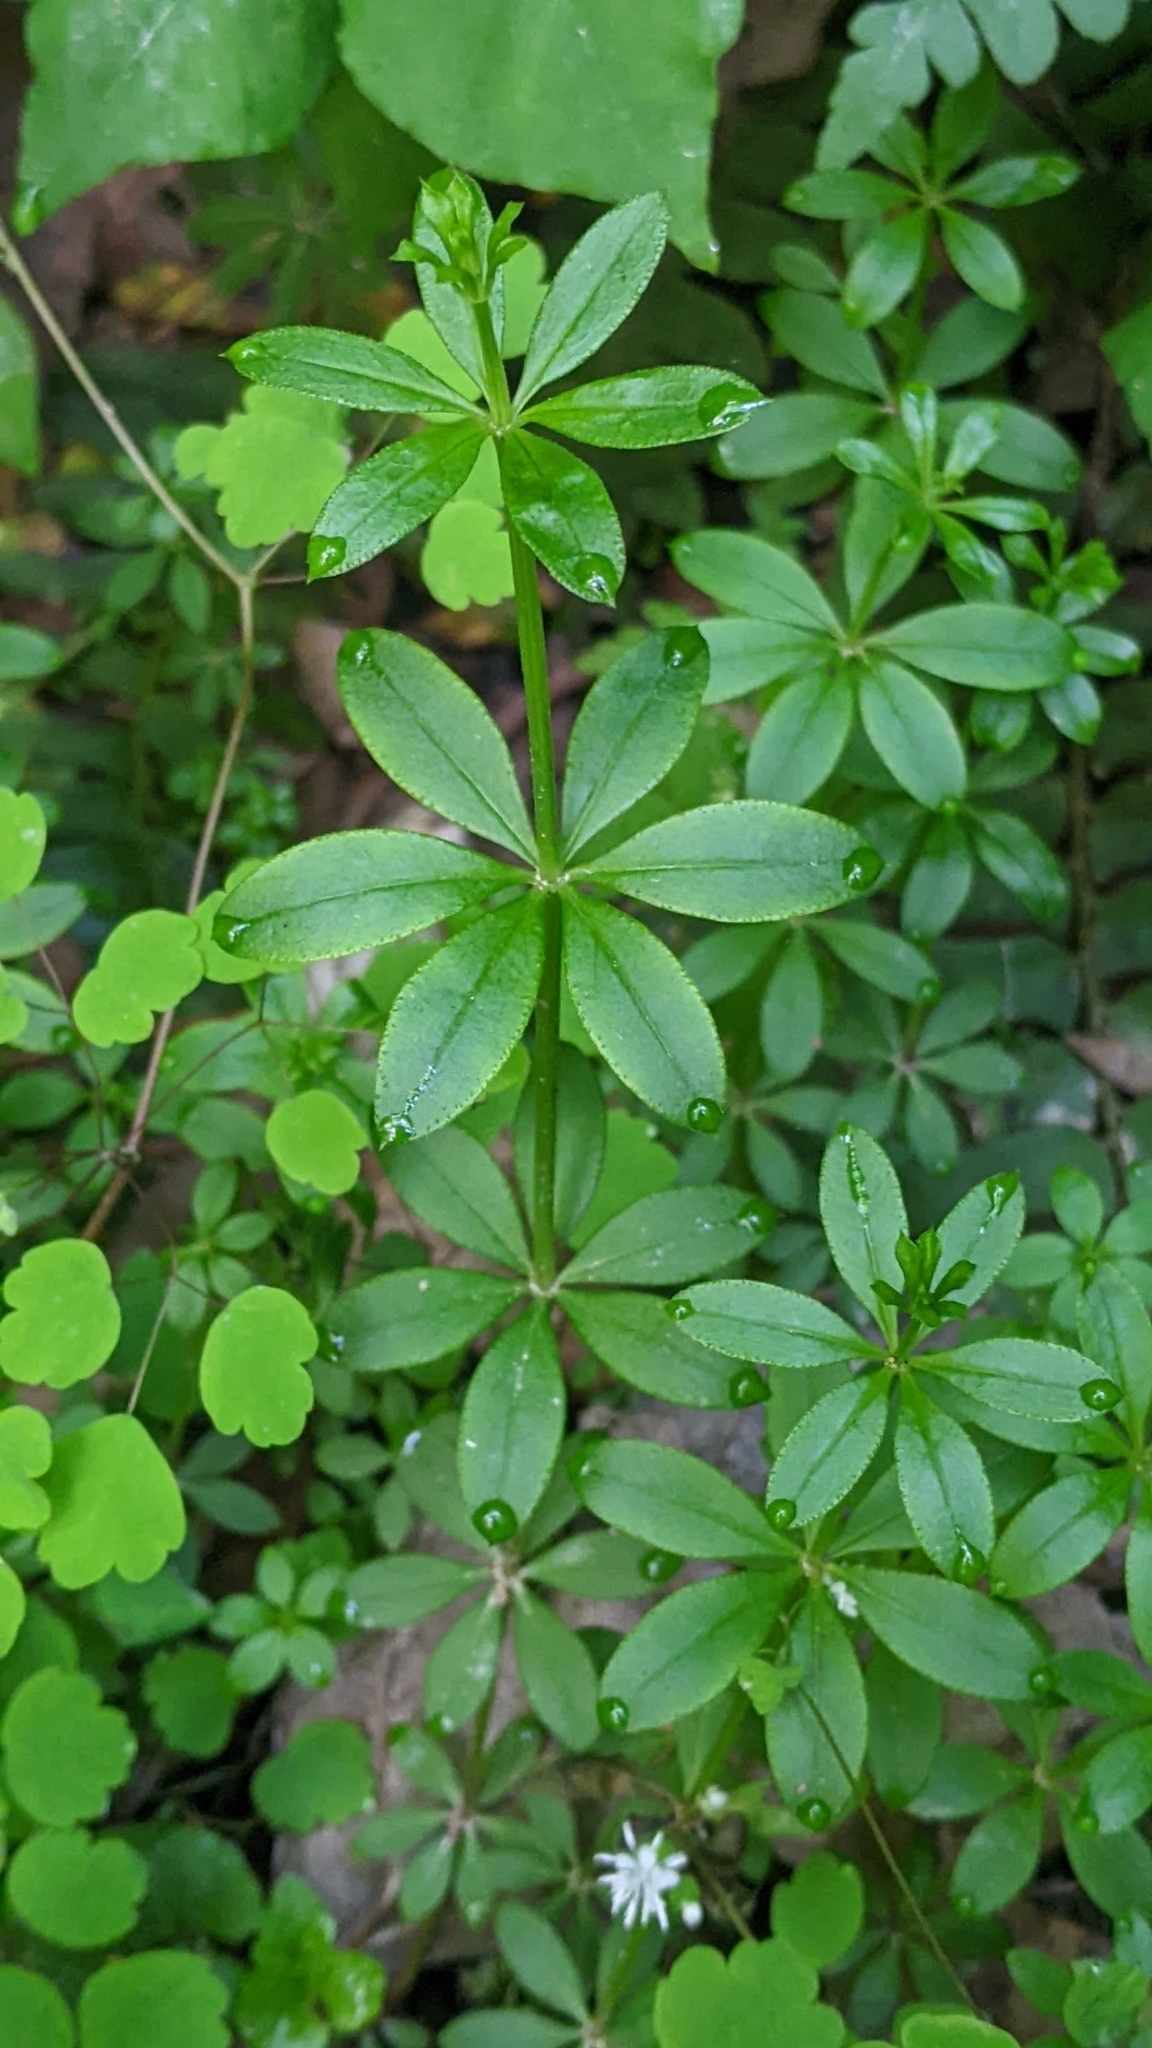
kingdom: Plantae
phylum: Tracheophyta
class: Magnoliopsida
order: Gentianales
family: Rubiaceae
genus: Galium
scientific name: Galium triflorum
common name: Fragrant bedstraw
